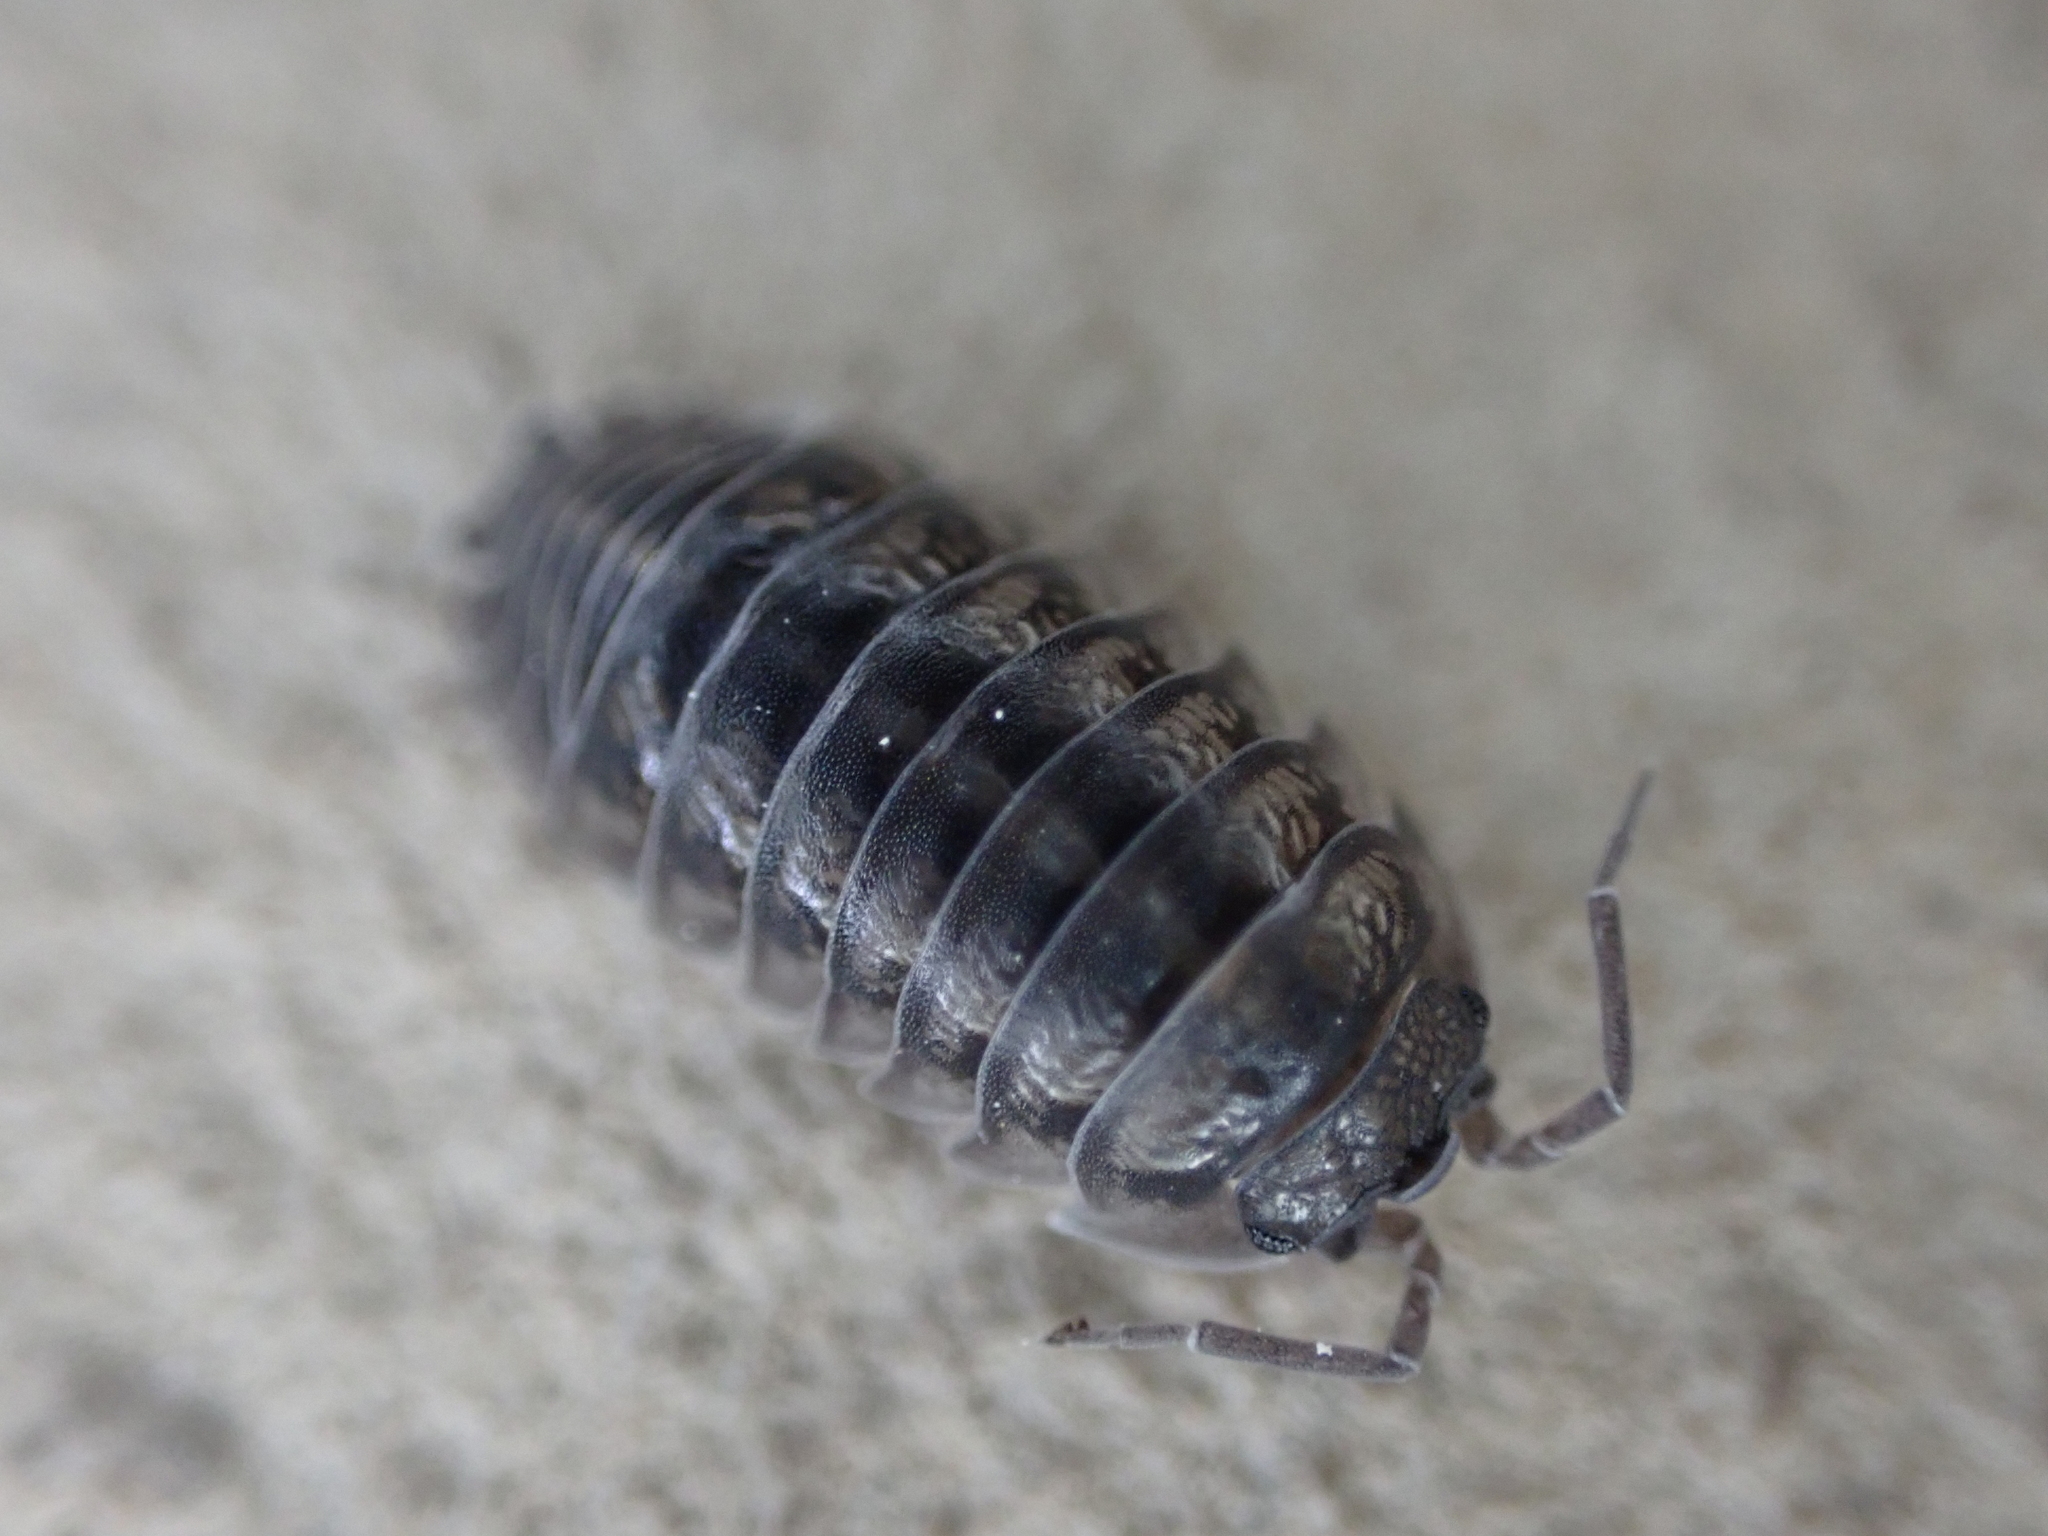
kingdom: Animalia
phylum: Arthropoda
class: Malacostraca
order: Isopoda
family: Armadillidiidae
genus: Armadillidium
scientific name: Armadillidium nasatum
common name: Isopod
